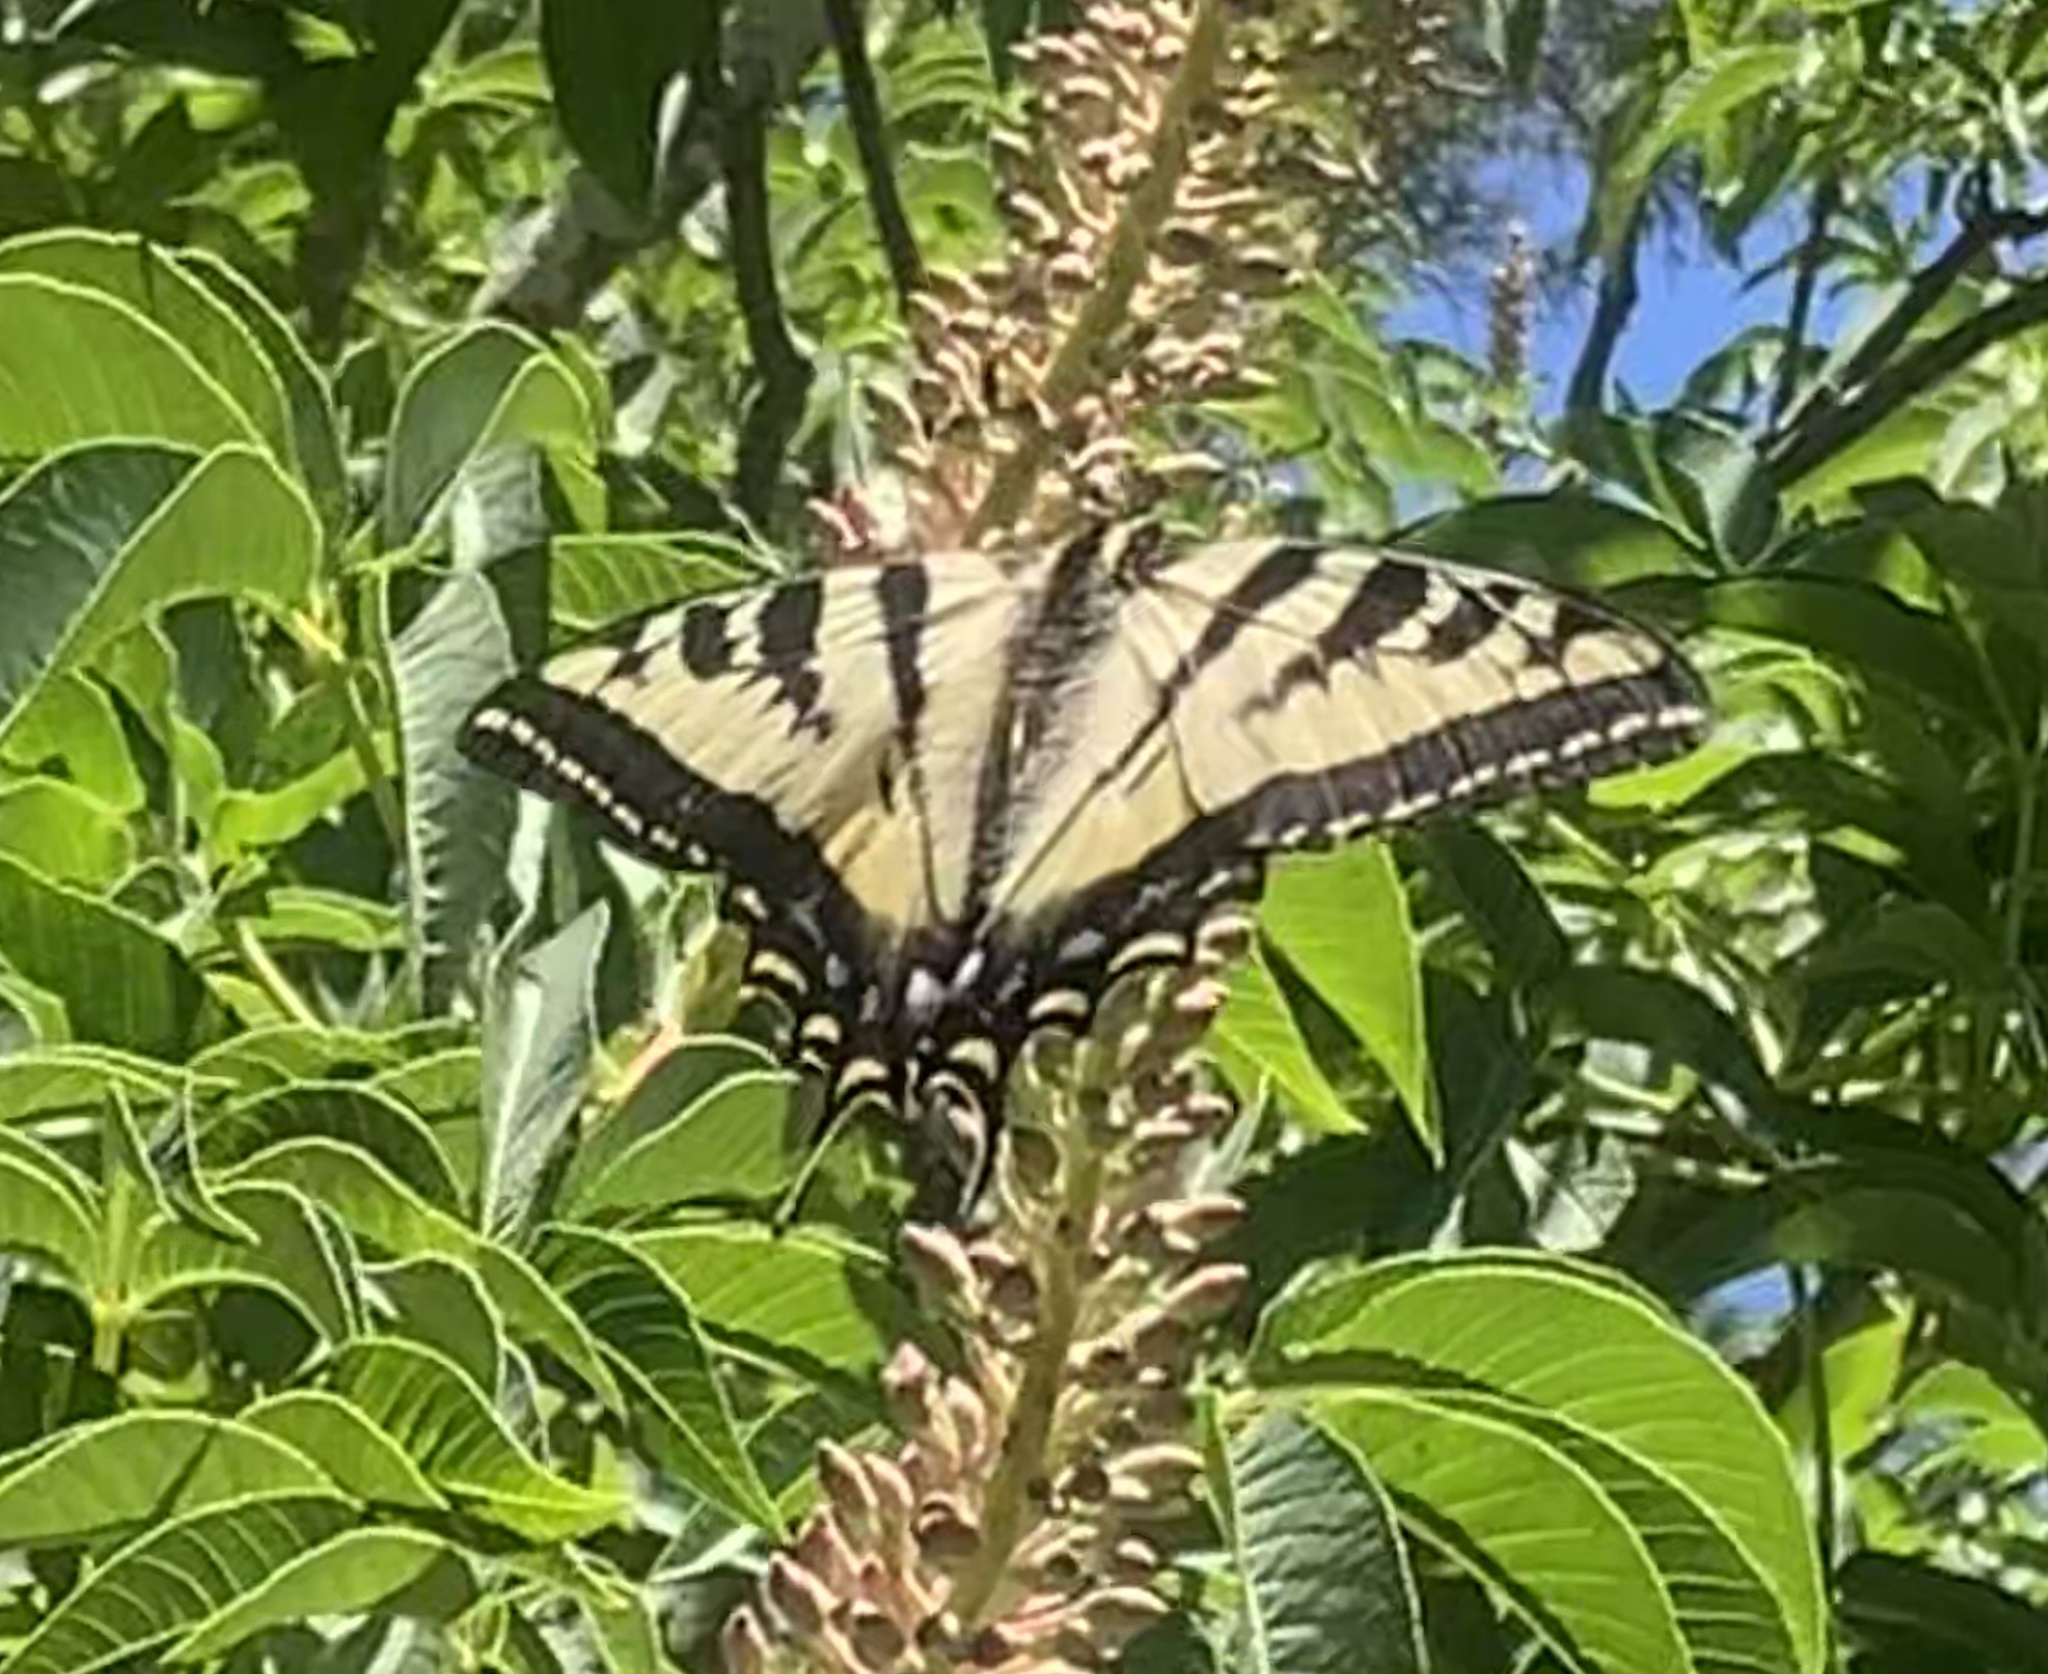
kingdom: Animalia
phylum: Arthropoda
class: Insecta
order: Lepidoptera
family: Papilionidae
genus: Papilio
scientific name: Papilio rutulus
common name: Western tiger swallowtail
